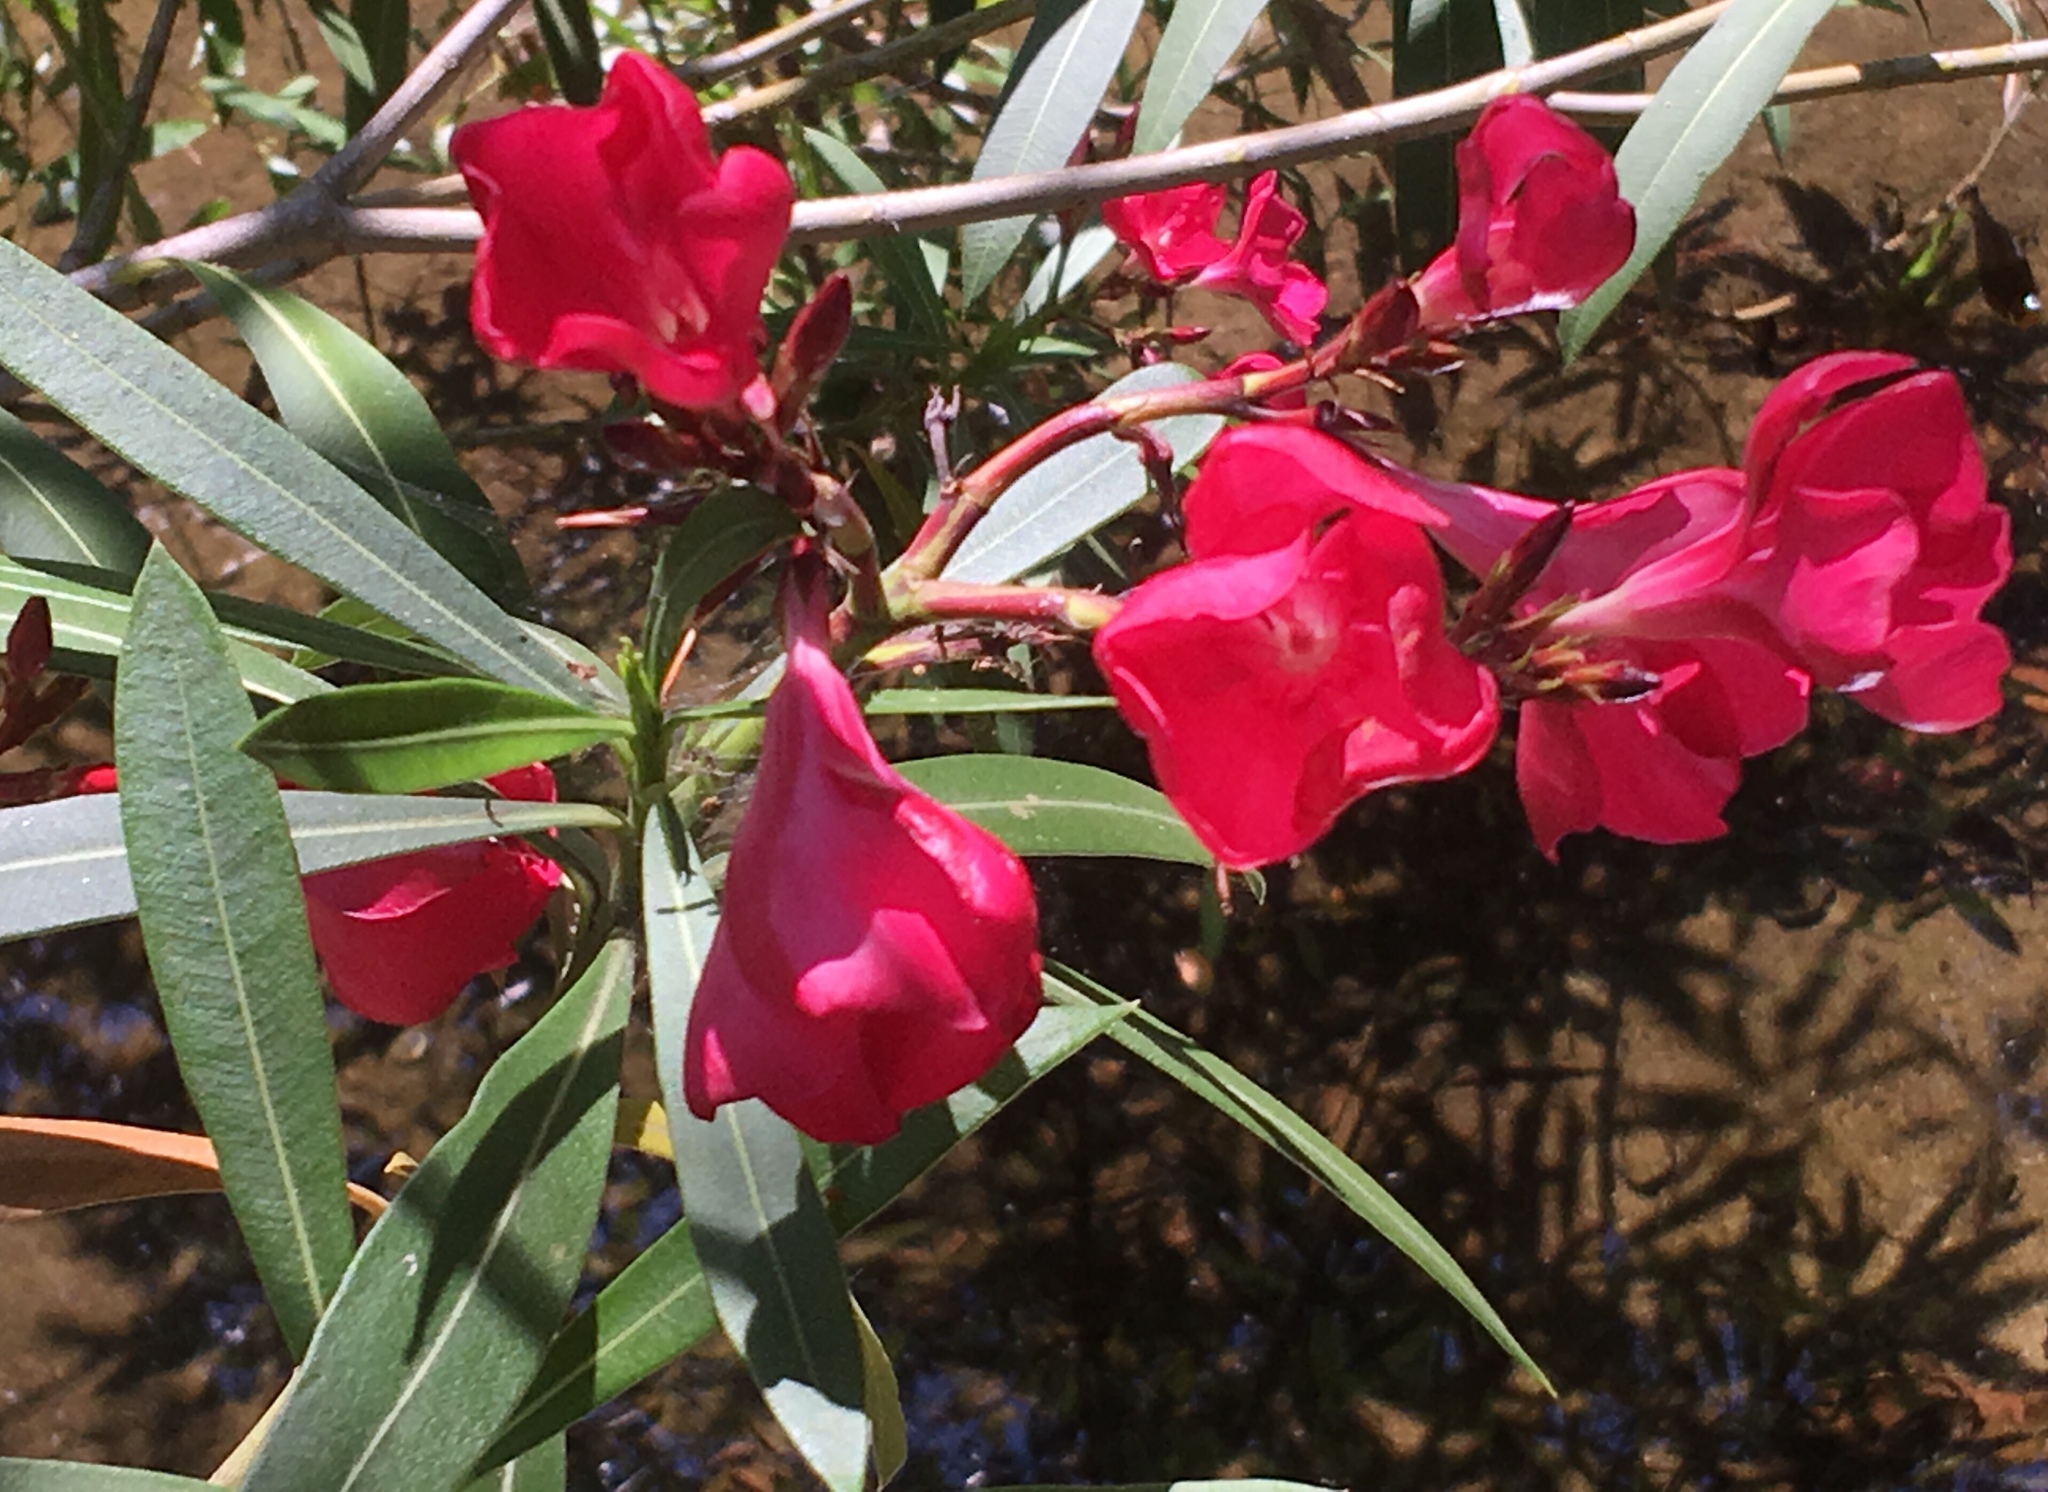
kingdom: Plantae
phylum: Tracheophyta
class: Magnoliopsida
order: Gentianales
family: Apocynaceae
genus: Nerium
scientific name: Nerium oleander
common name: Oleander
